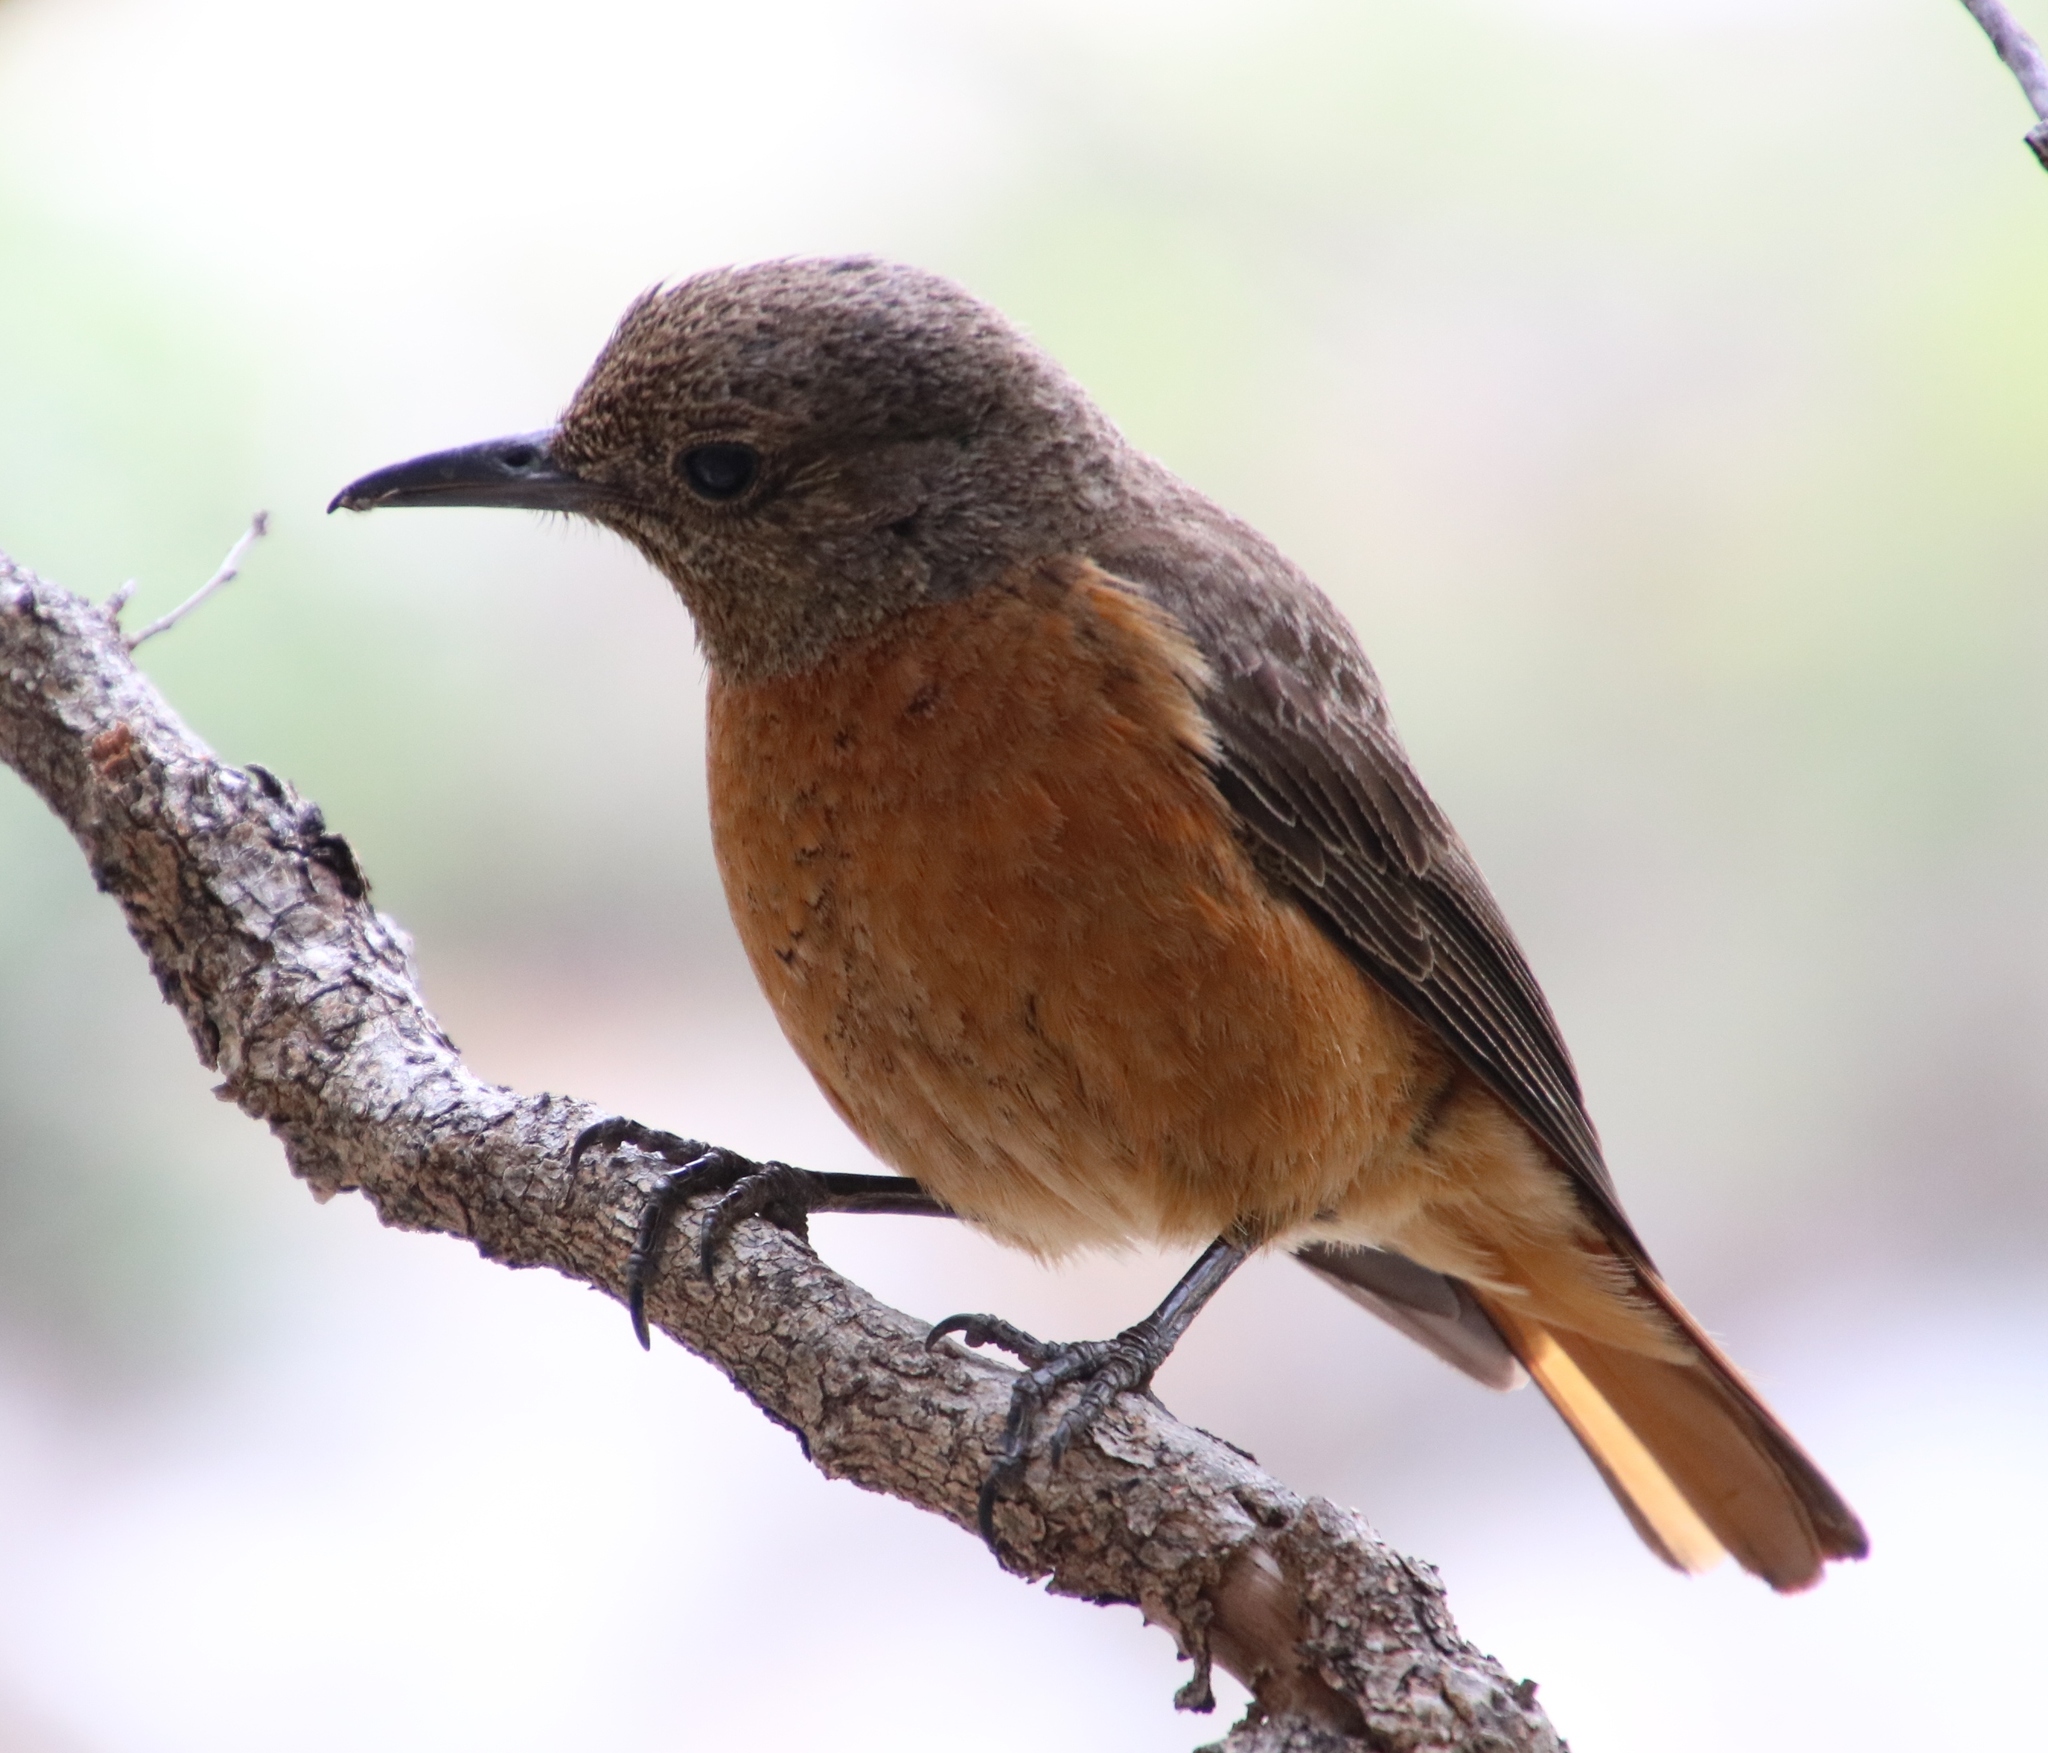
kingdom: Animalia
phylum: Chordata
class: Aves
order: Passeriformes
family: Muscicapidae
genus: Monticola
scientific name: Monticola rupestris
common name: Cape rock thrush
